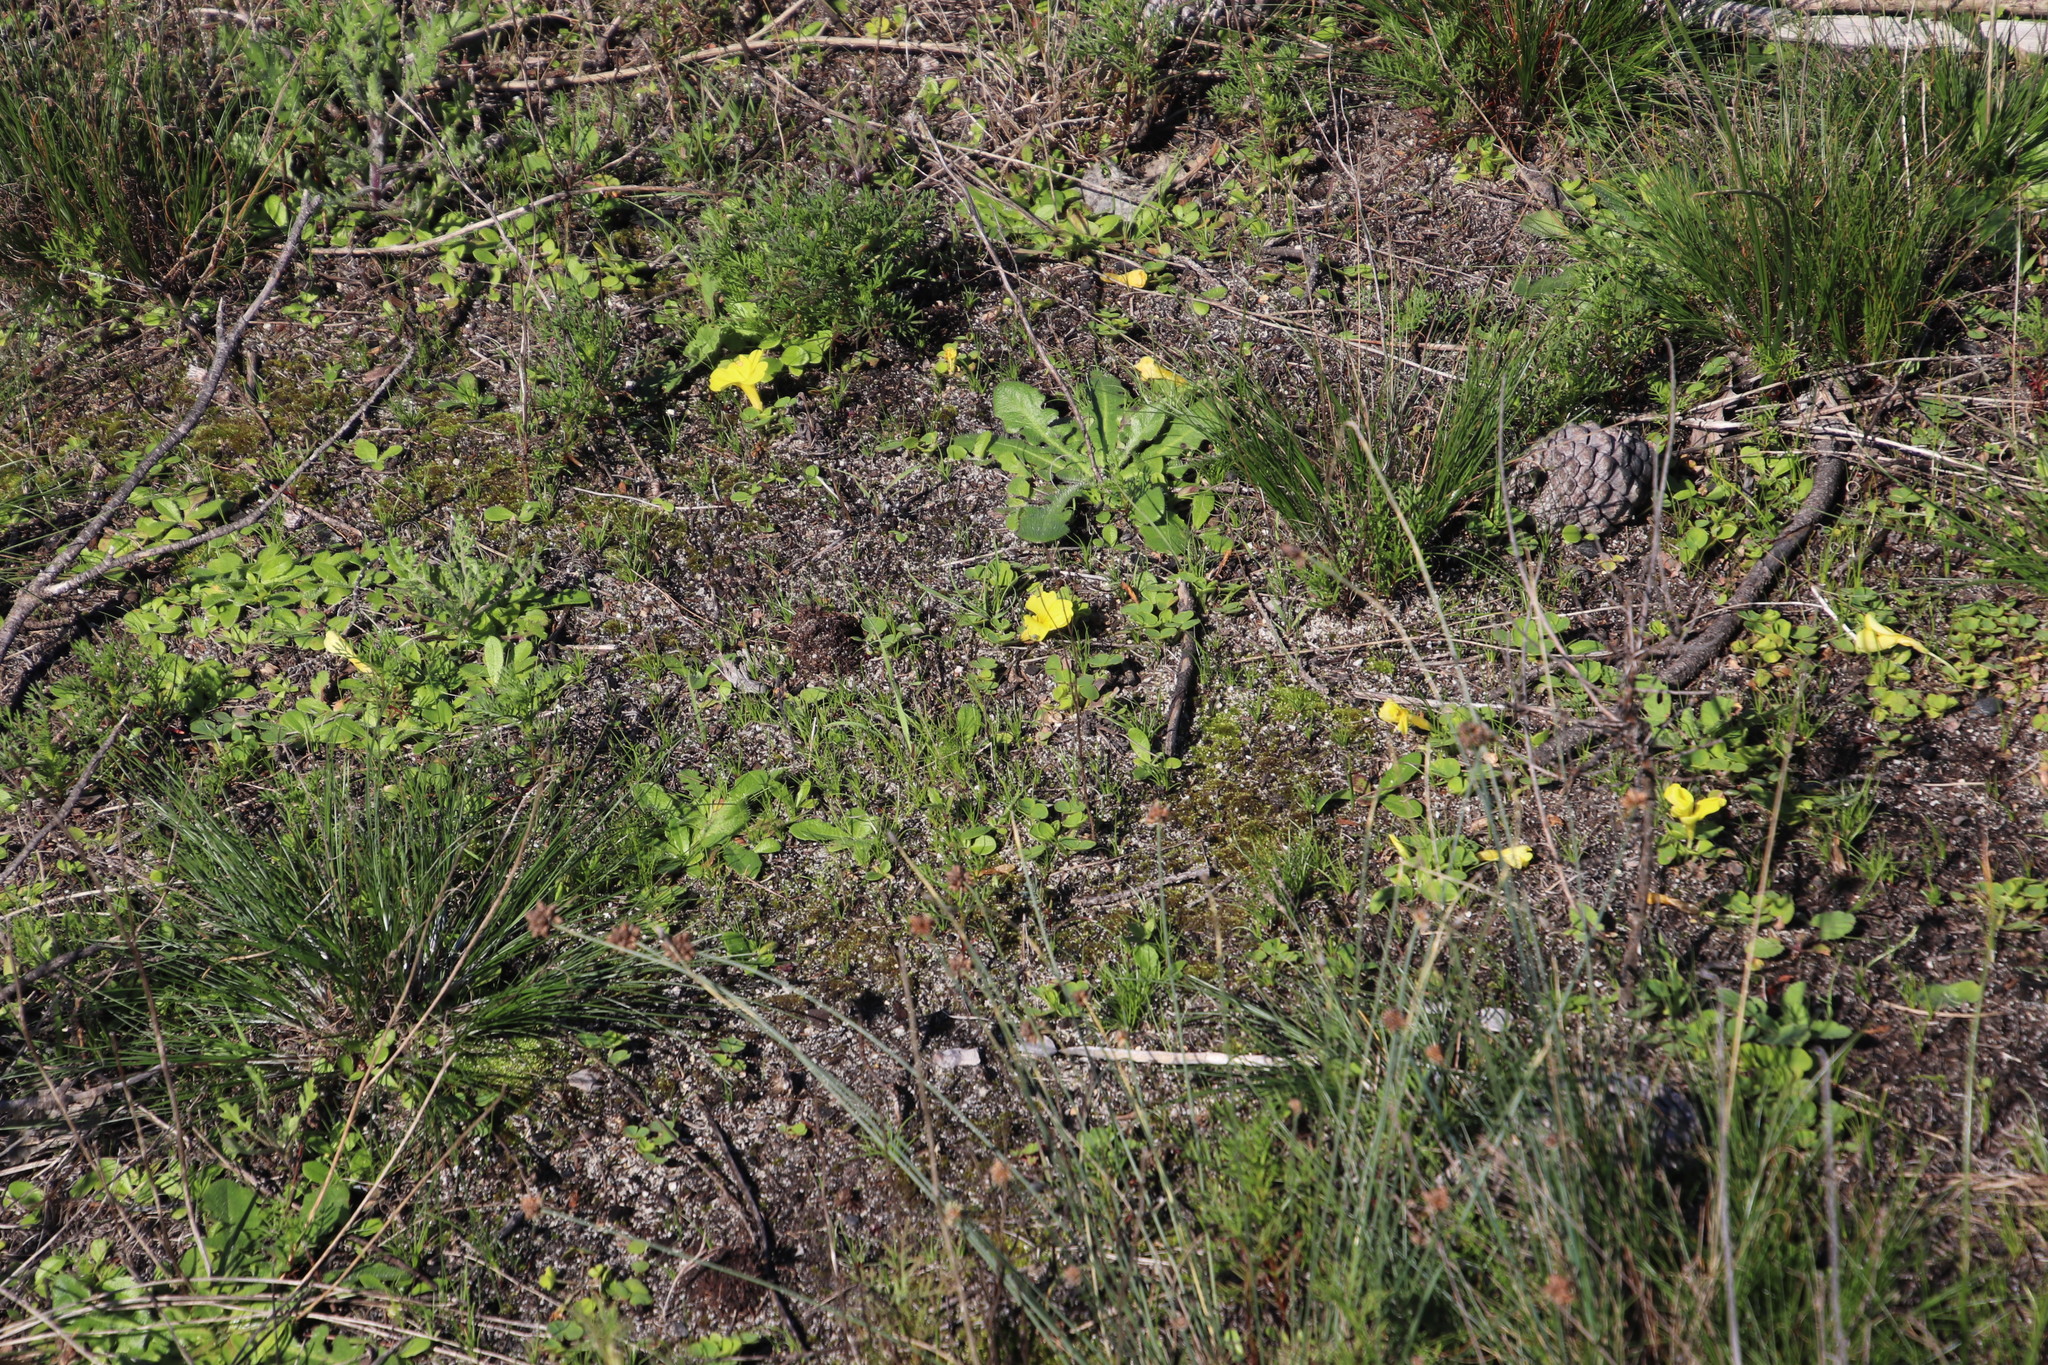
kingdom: Plantae
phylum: Tracheophyta
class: Magnoliopsida
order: Asterales
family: Asteraceae
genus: Hypochaeris
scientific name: Hypochaeris radicata
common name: Flatweed
